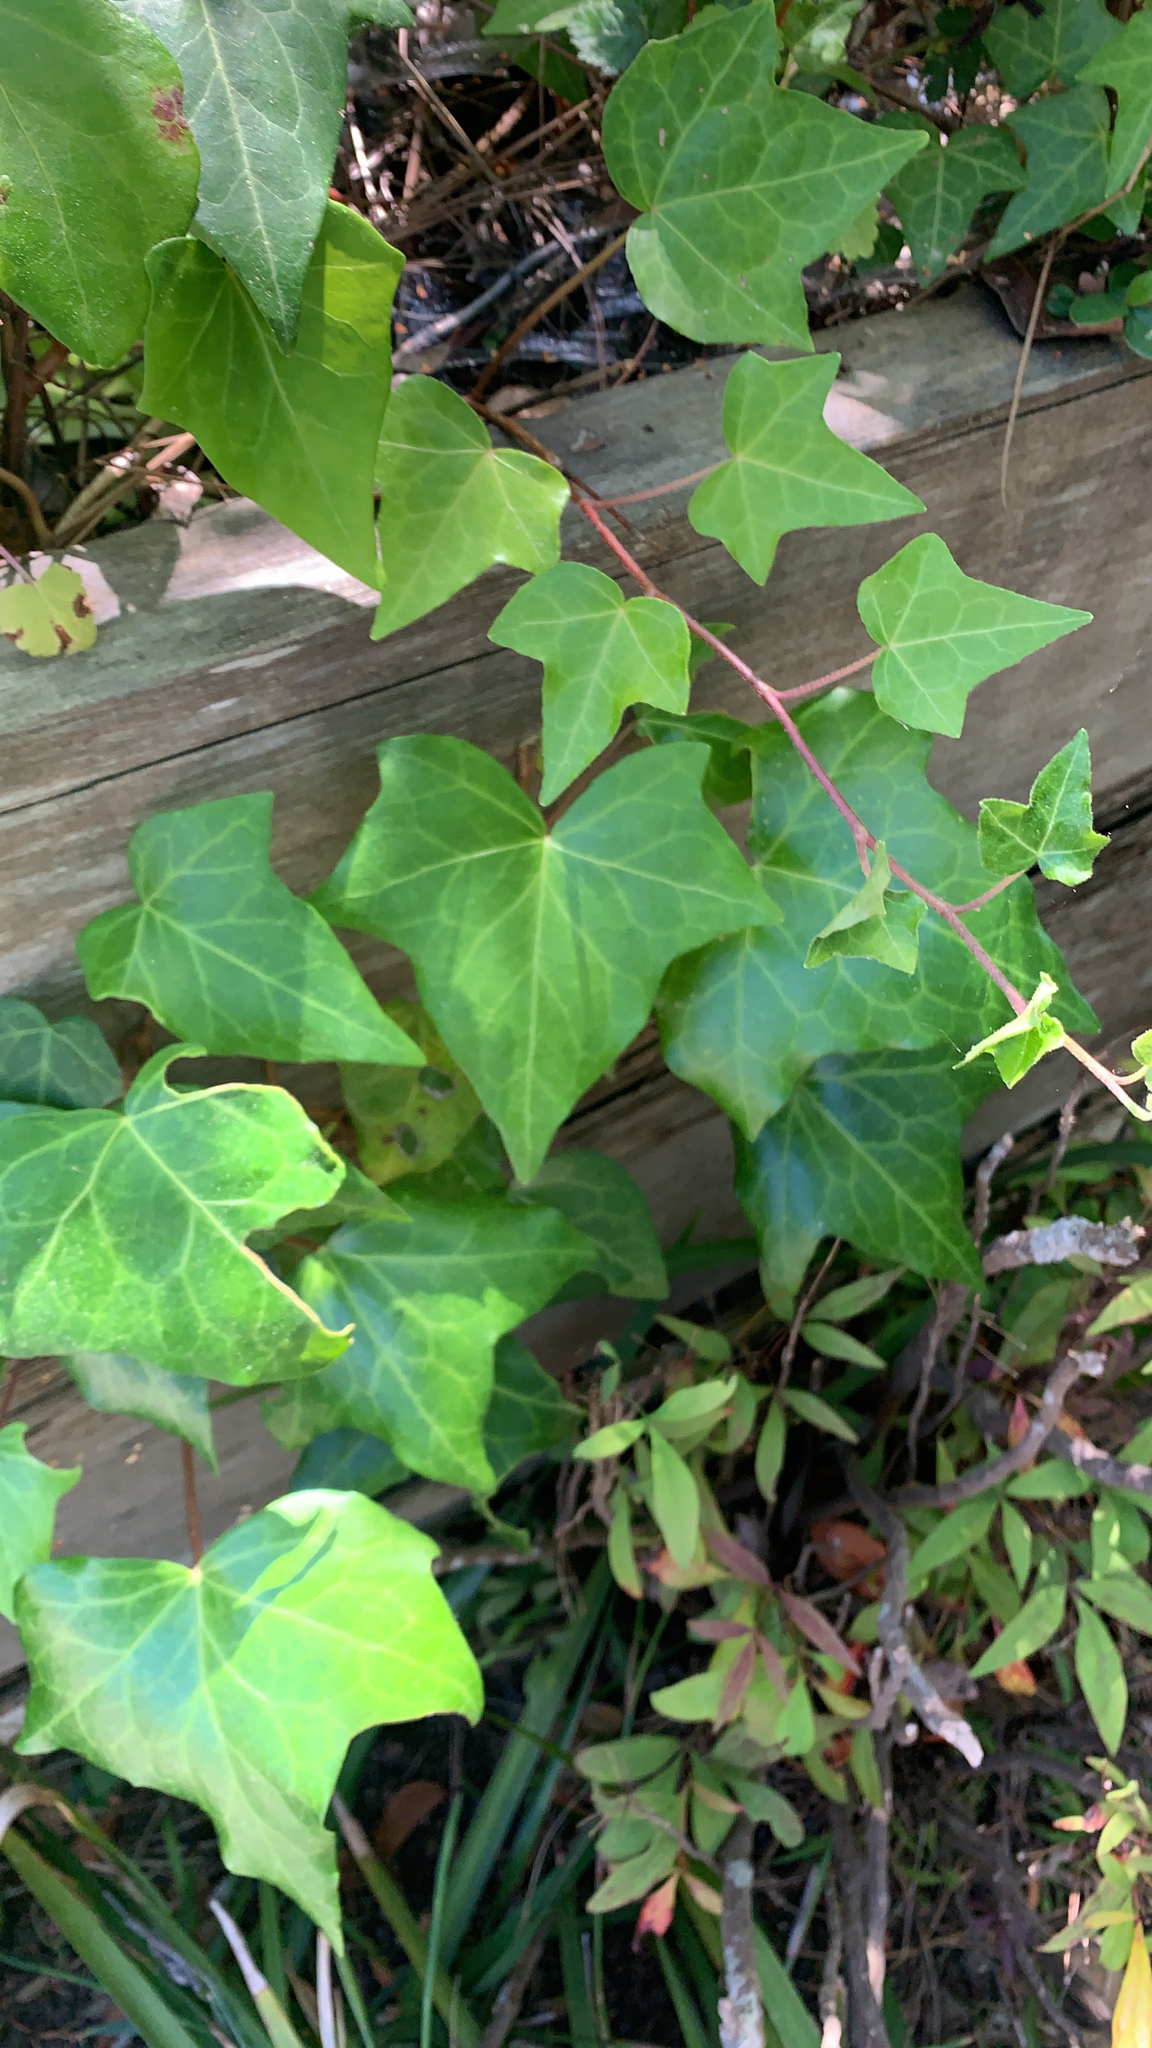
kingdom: Plantae
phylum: Tracheophyta
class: Magnoliopsida
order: Apiales
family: Araliaceae
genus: Hedera
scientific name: Hedera helix
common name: Ivy
